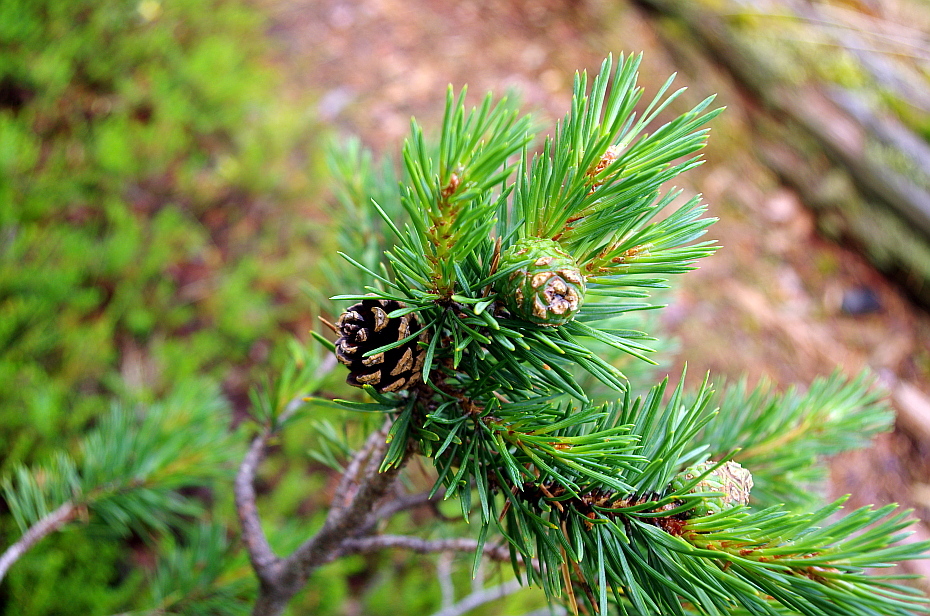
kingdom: Plantae
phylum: Tracheophyta
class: Pinopsida
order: Pinales
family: Pinaceae
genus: Pinus
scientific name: Pinus sylvestris
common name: Scots pine
